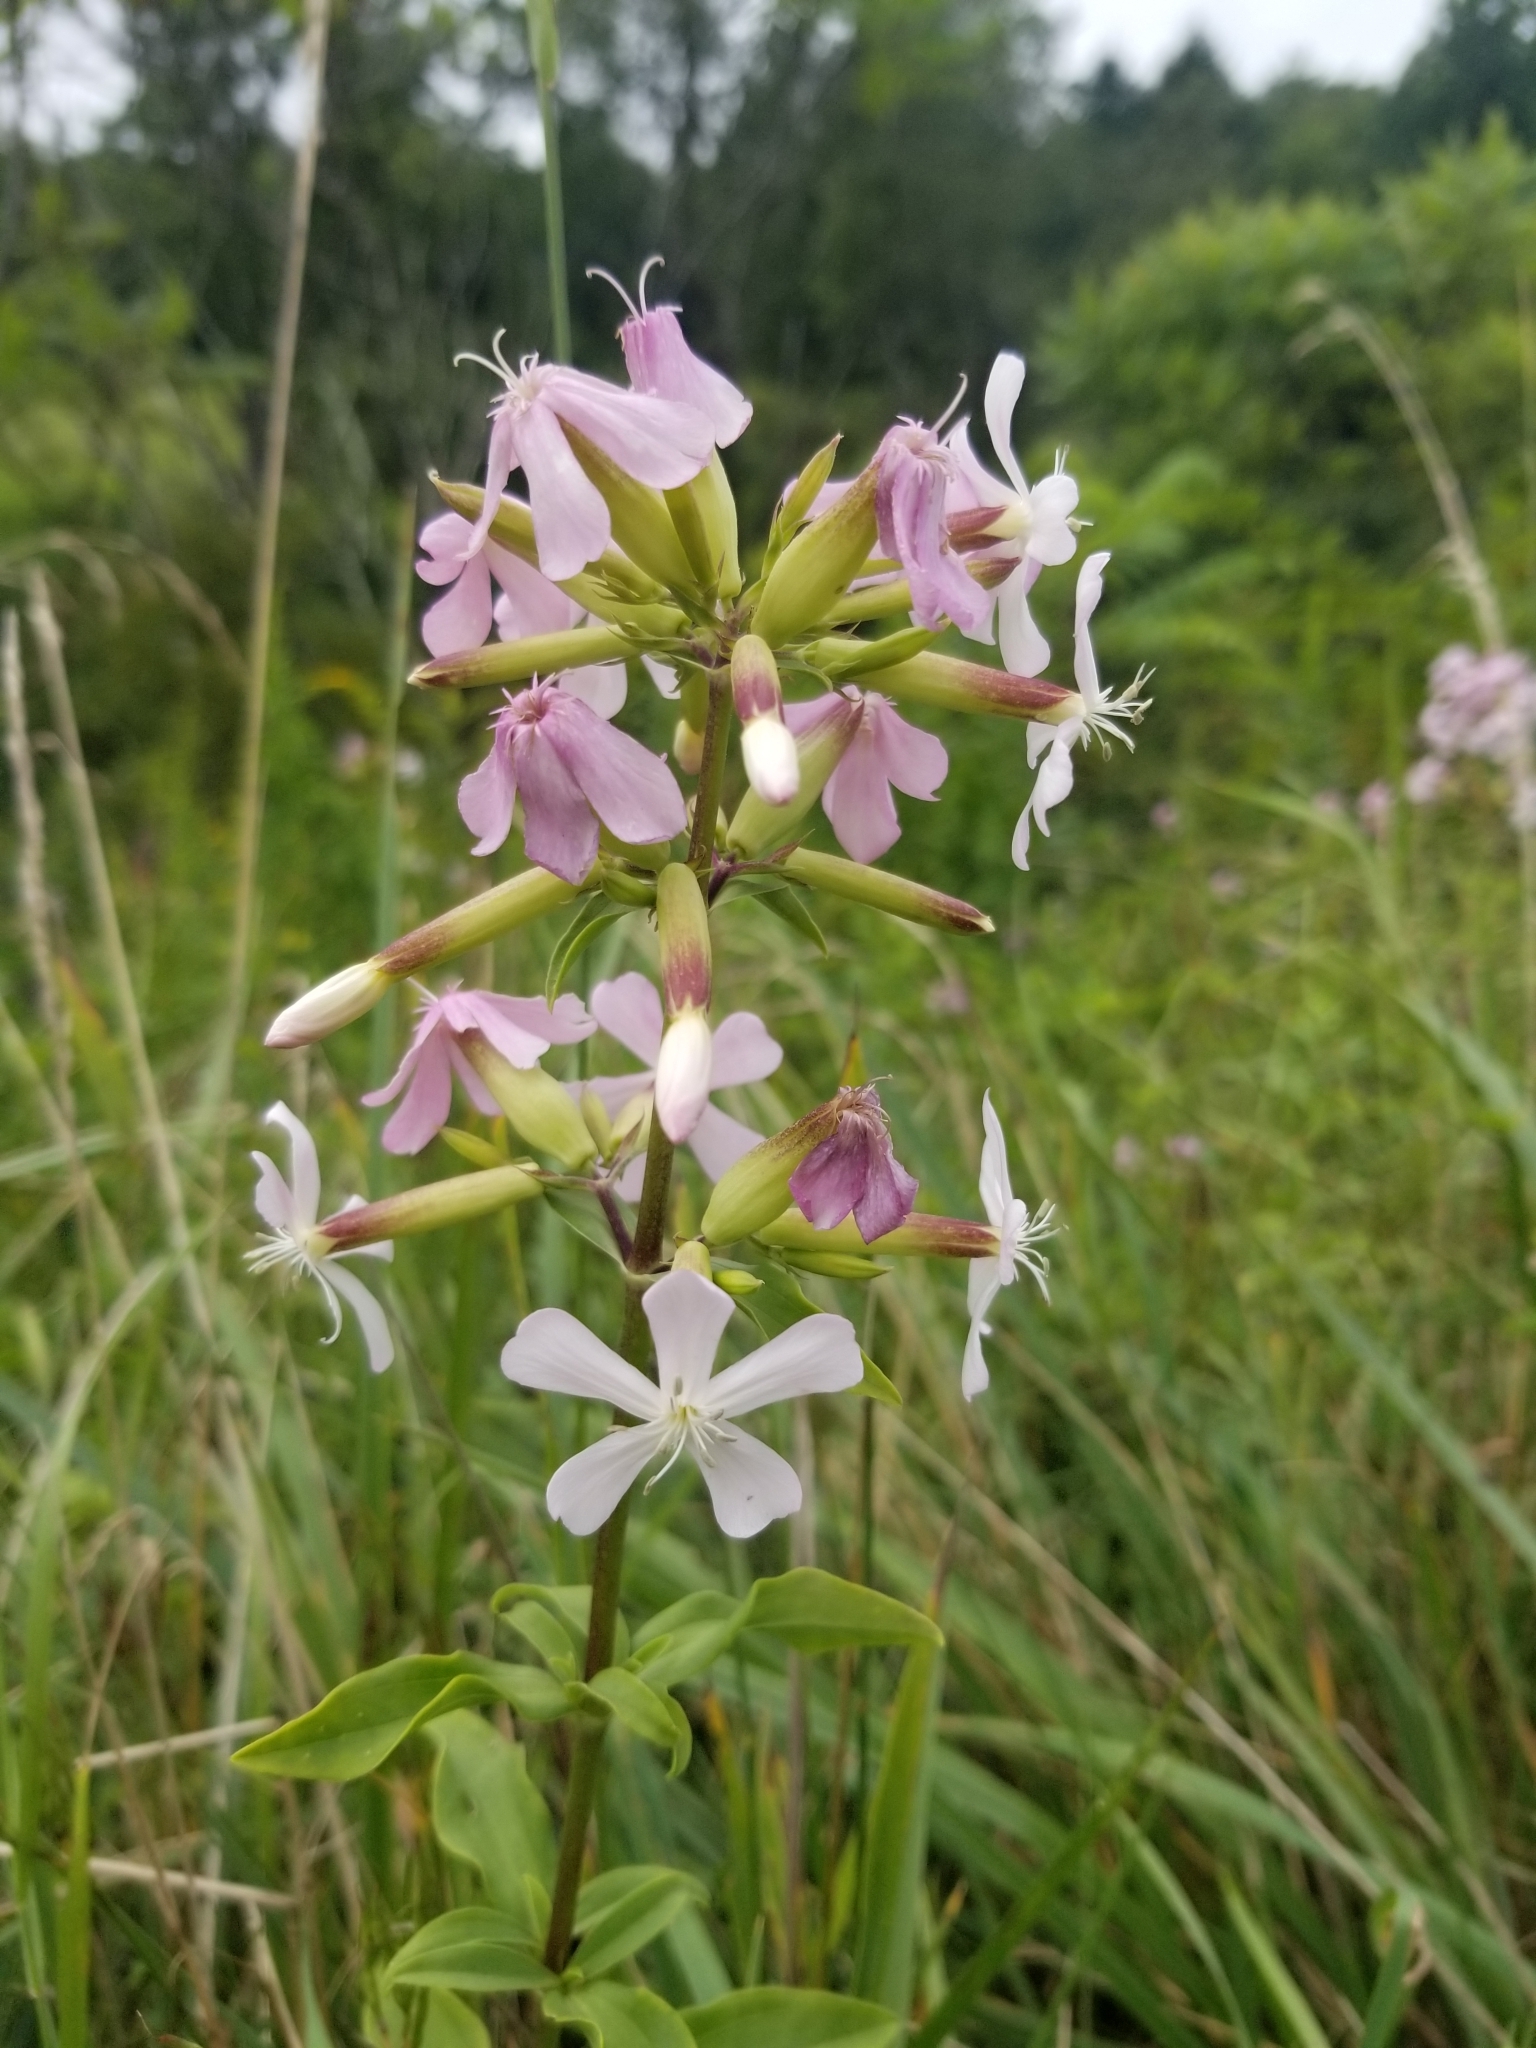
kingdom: Plantae
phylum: Tracheophyta
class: Magnoliopsida
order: Caryophyllales
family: Caryophyllaceae
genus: Saponaria
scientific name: Saponaria officinalis
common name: Soapwort
